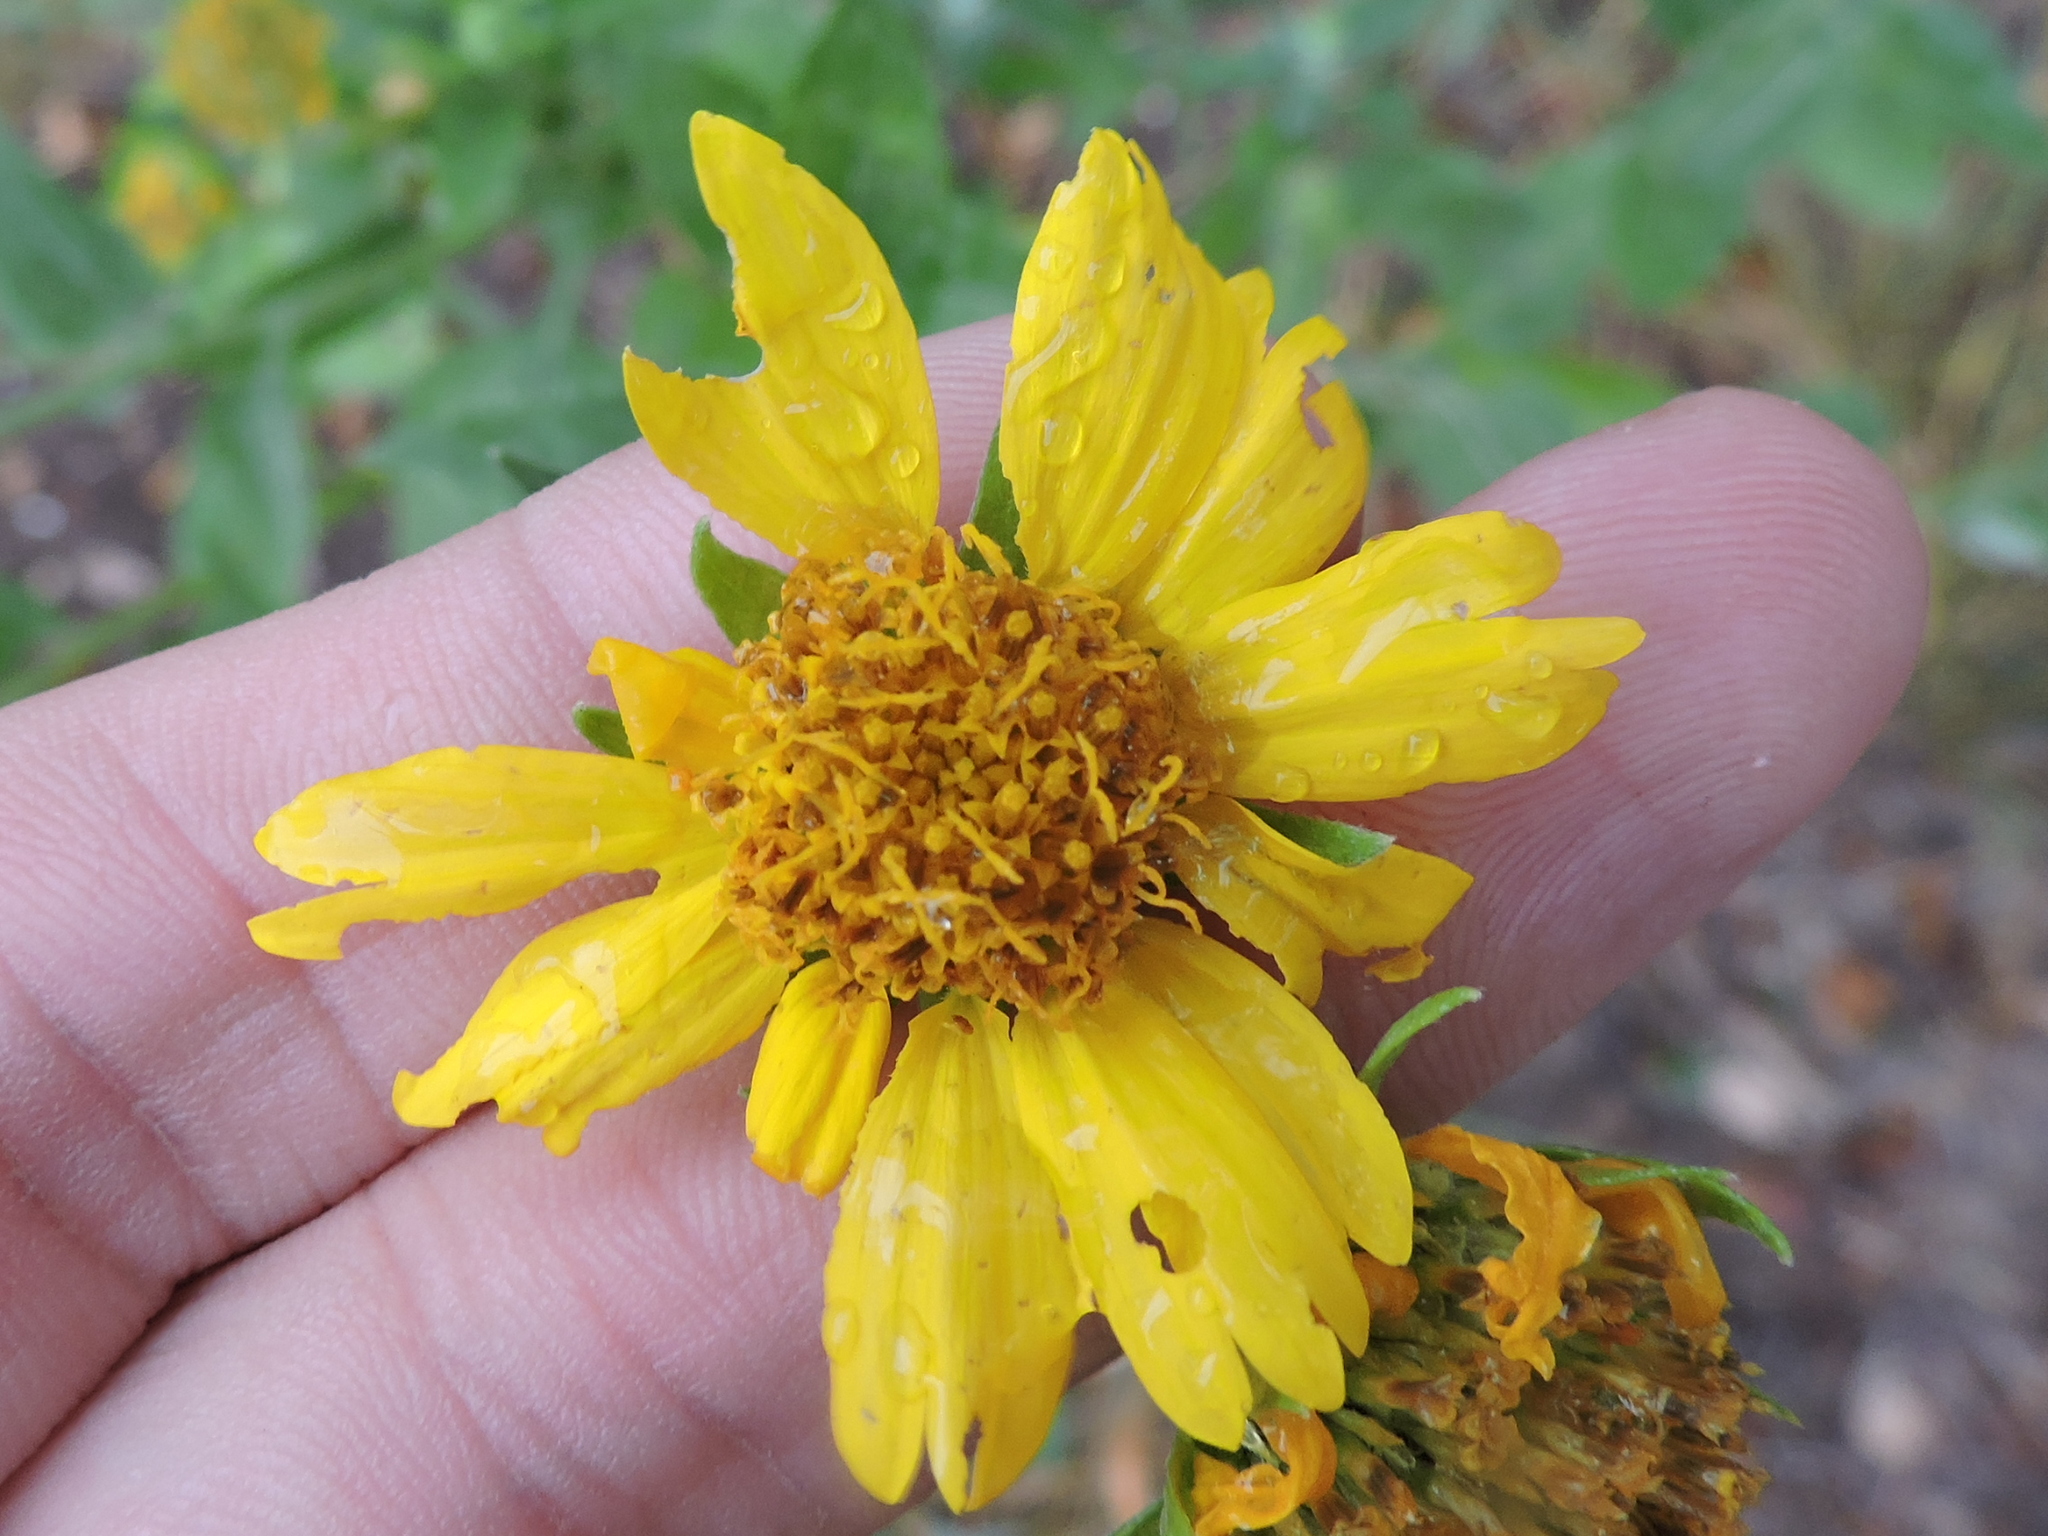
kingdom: Plantae
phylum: Tracheophyta
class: Magnoliopsida
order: Asterales
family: Asteraceae
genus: Verbesina
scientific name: Verbesina encelioides
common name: Golden crownbeard
